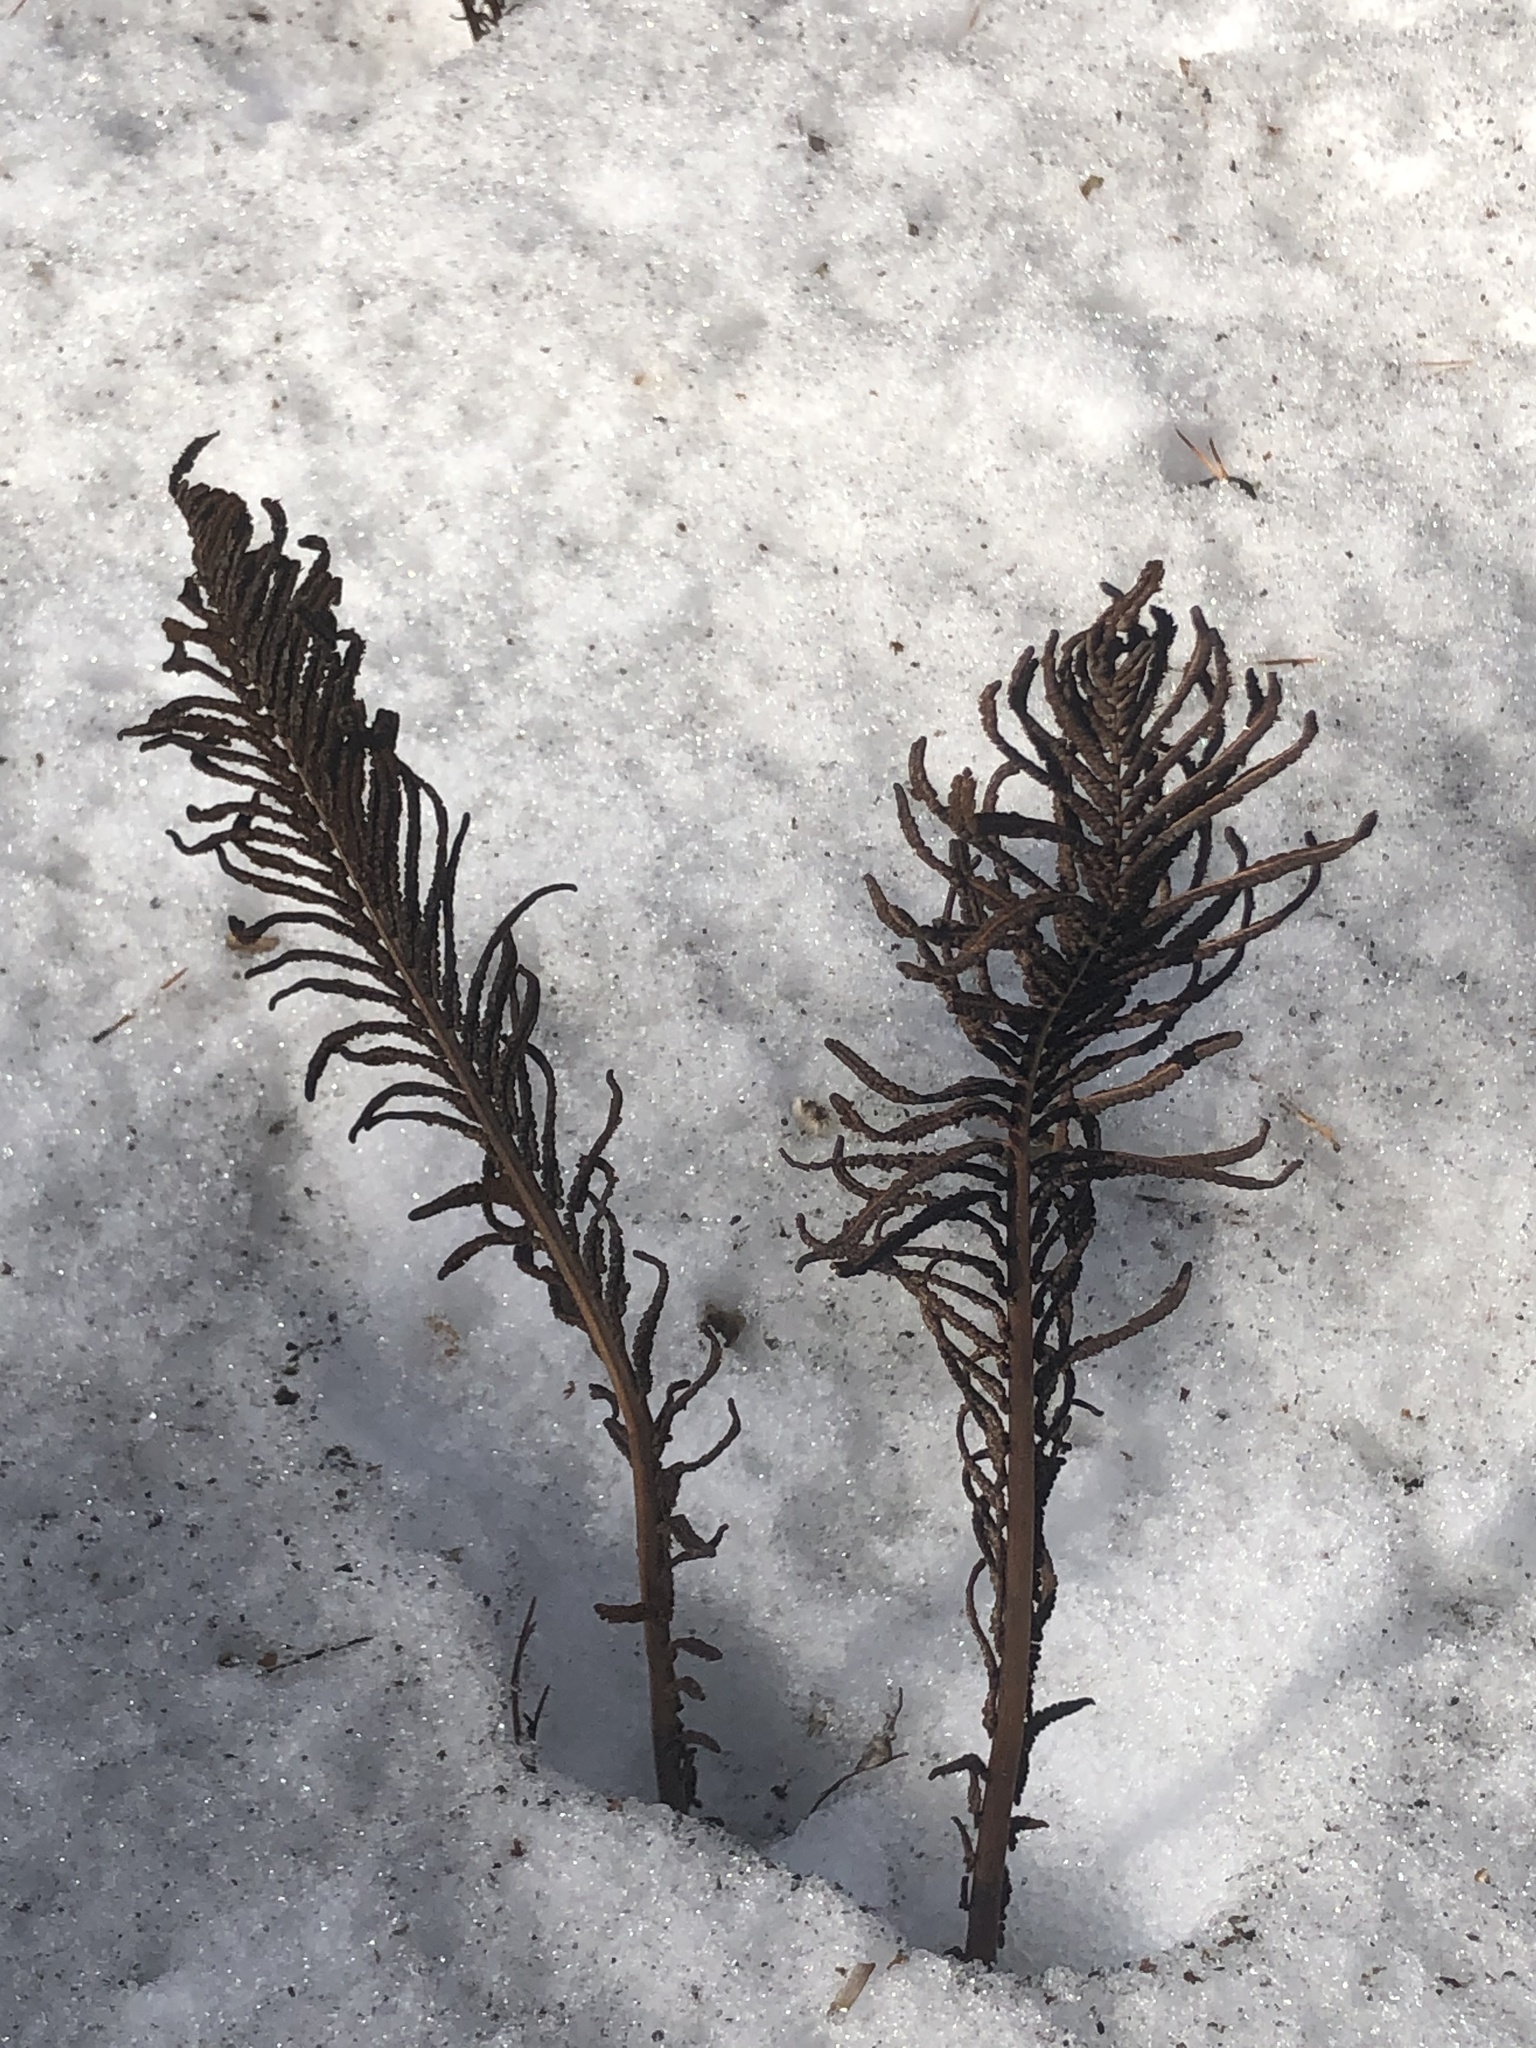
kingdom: Plantae
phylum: Tracheophyta
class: Polypodiopsida
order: Polypodiales
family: Onocleaceae
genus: Matteuccia
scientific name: Matteuccia struthiopteris
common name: Ostrich fern
